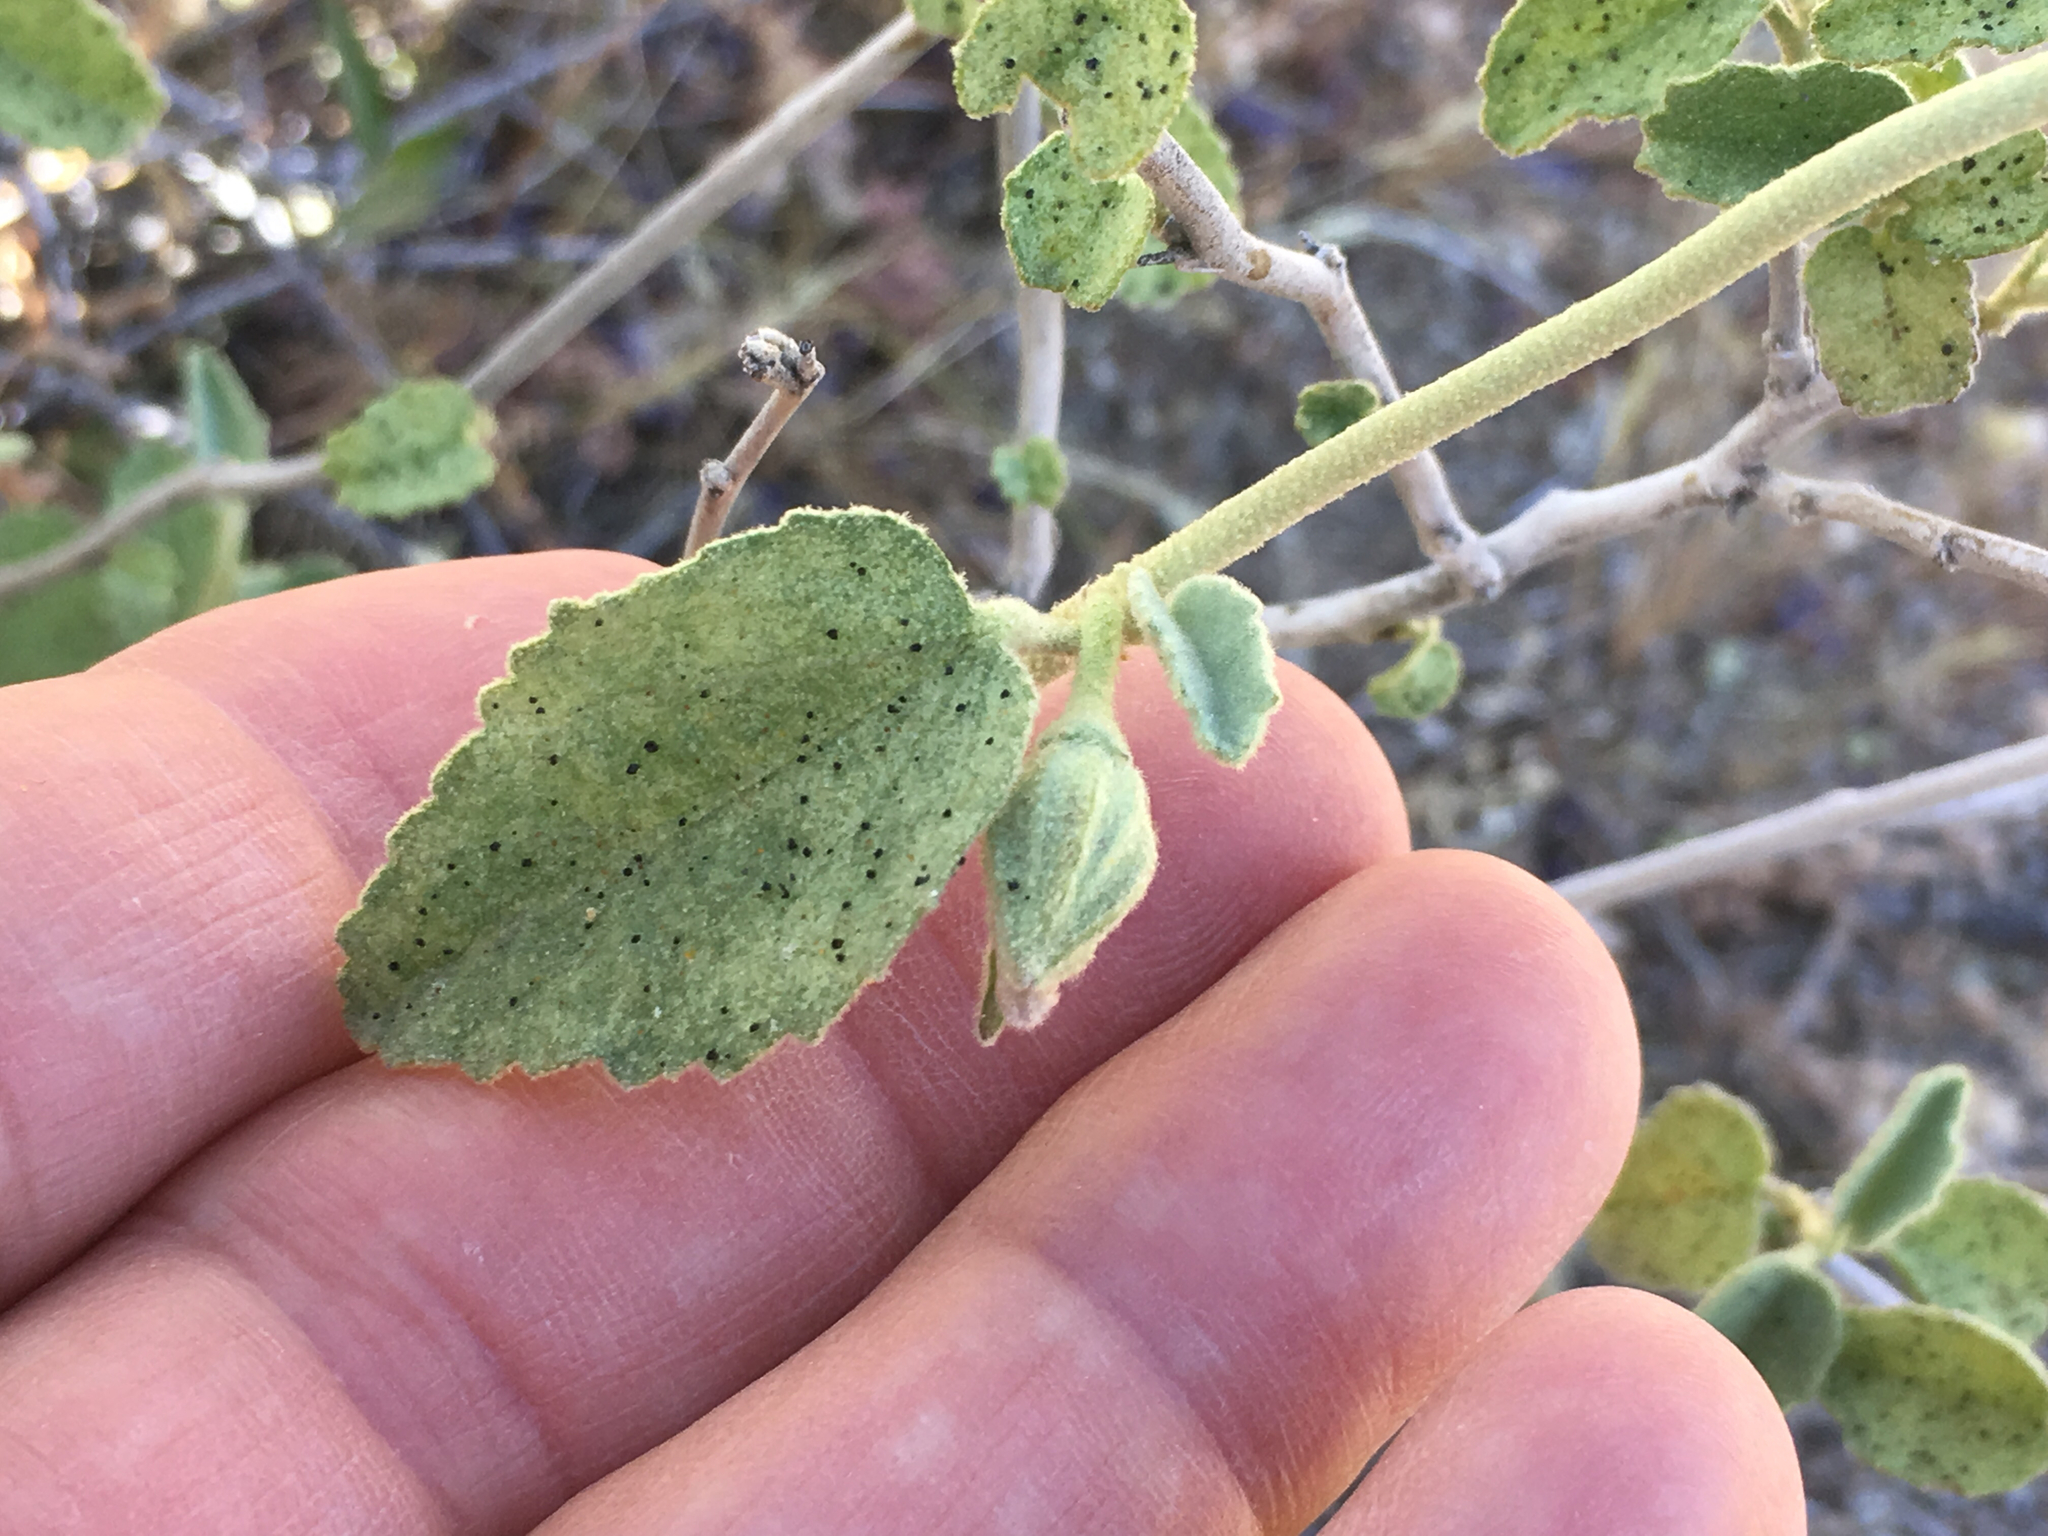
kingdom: Plantae
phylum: Tracheophyta
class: Magnoliopsida
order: Malvales
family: Malvaceae
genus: Hibiscus
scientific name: Hibiscus denudatus
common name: Paleface
